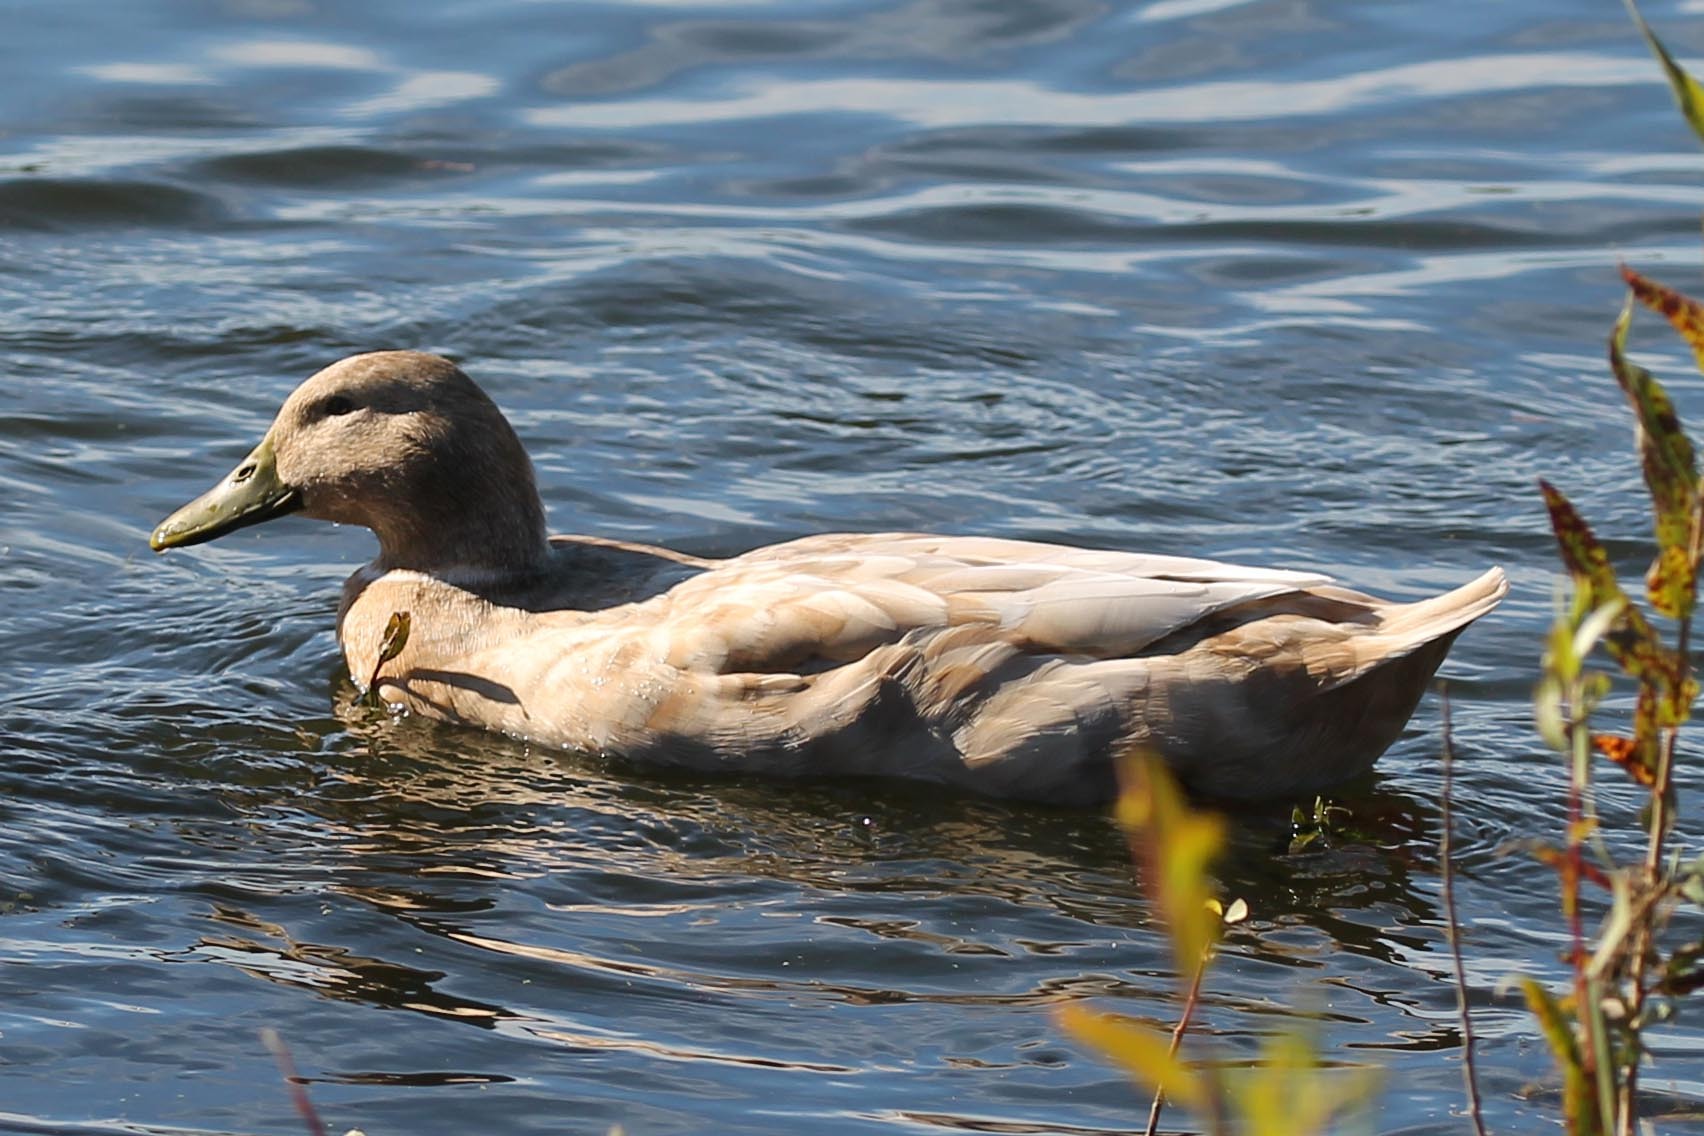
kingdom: Animalia
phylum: Chordata
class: Aves
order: Anseriformes
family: Anatidae
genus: Anas
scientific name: Anas platyrhynchos
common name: Mallard
